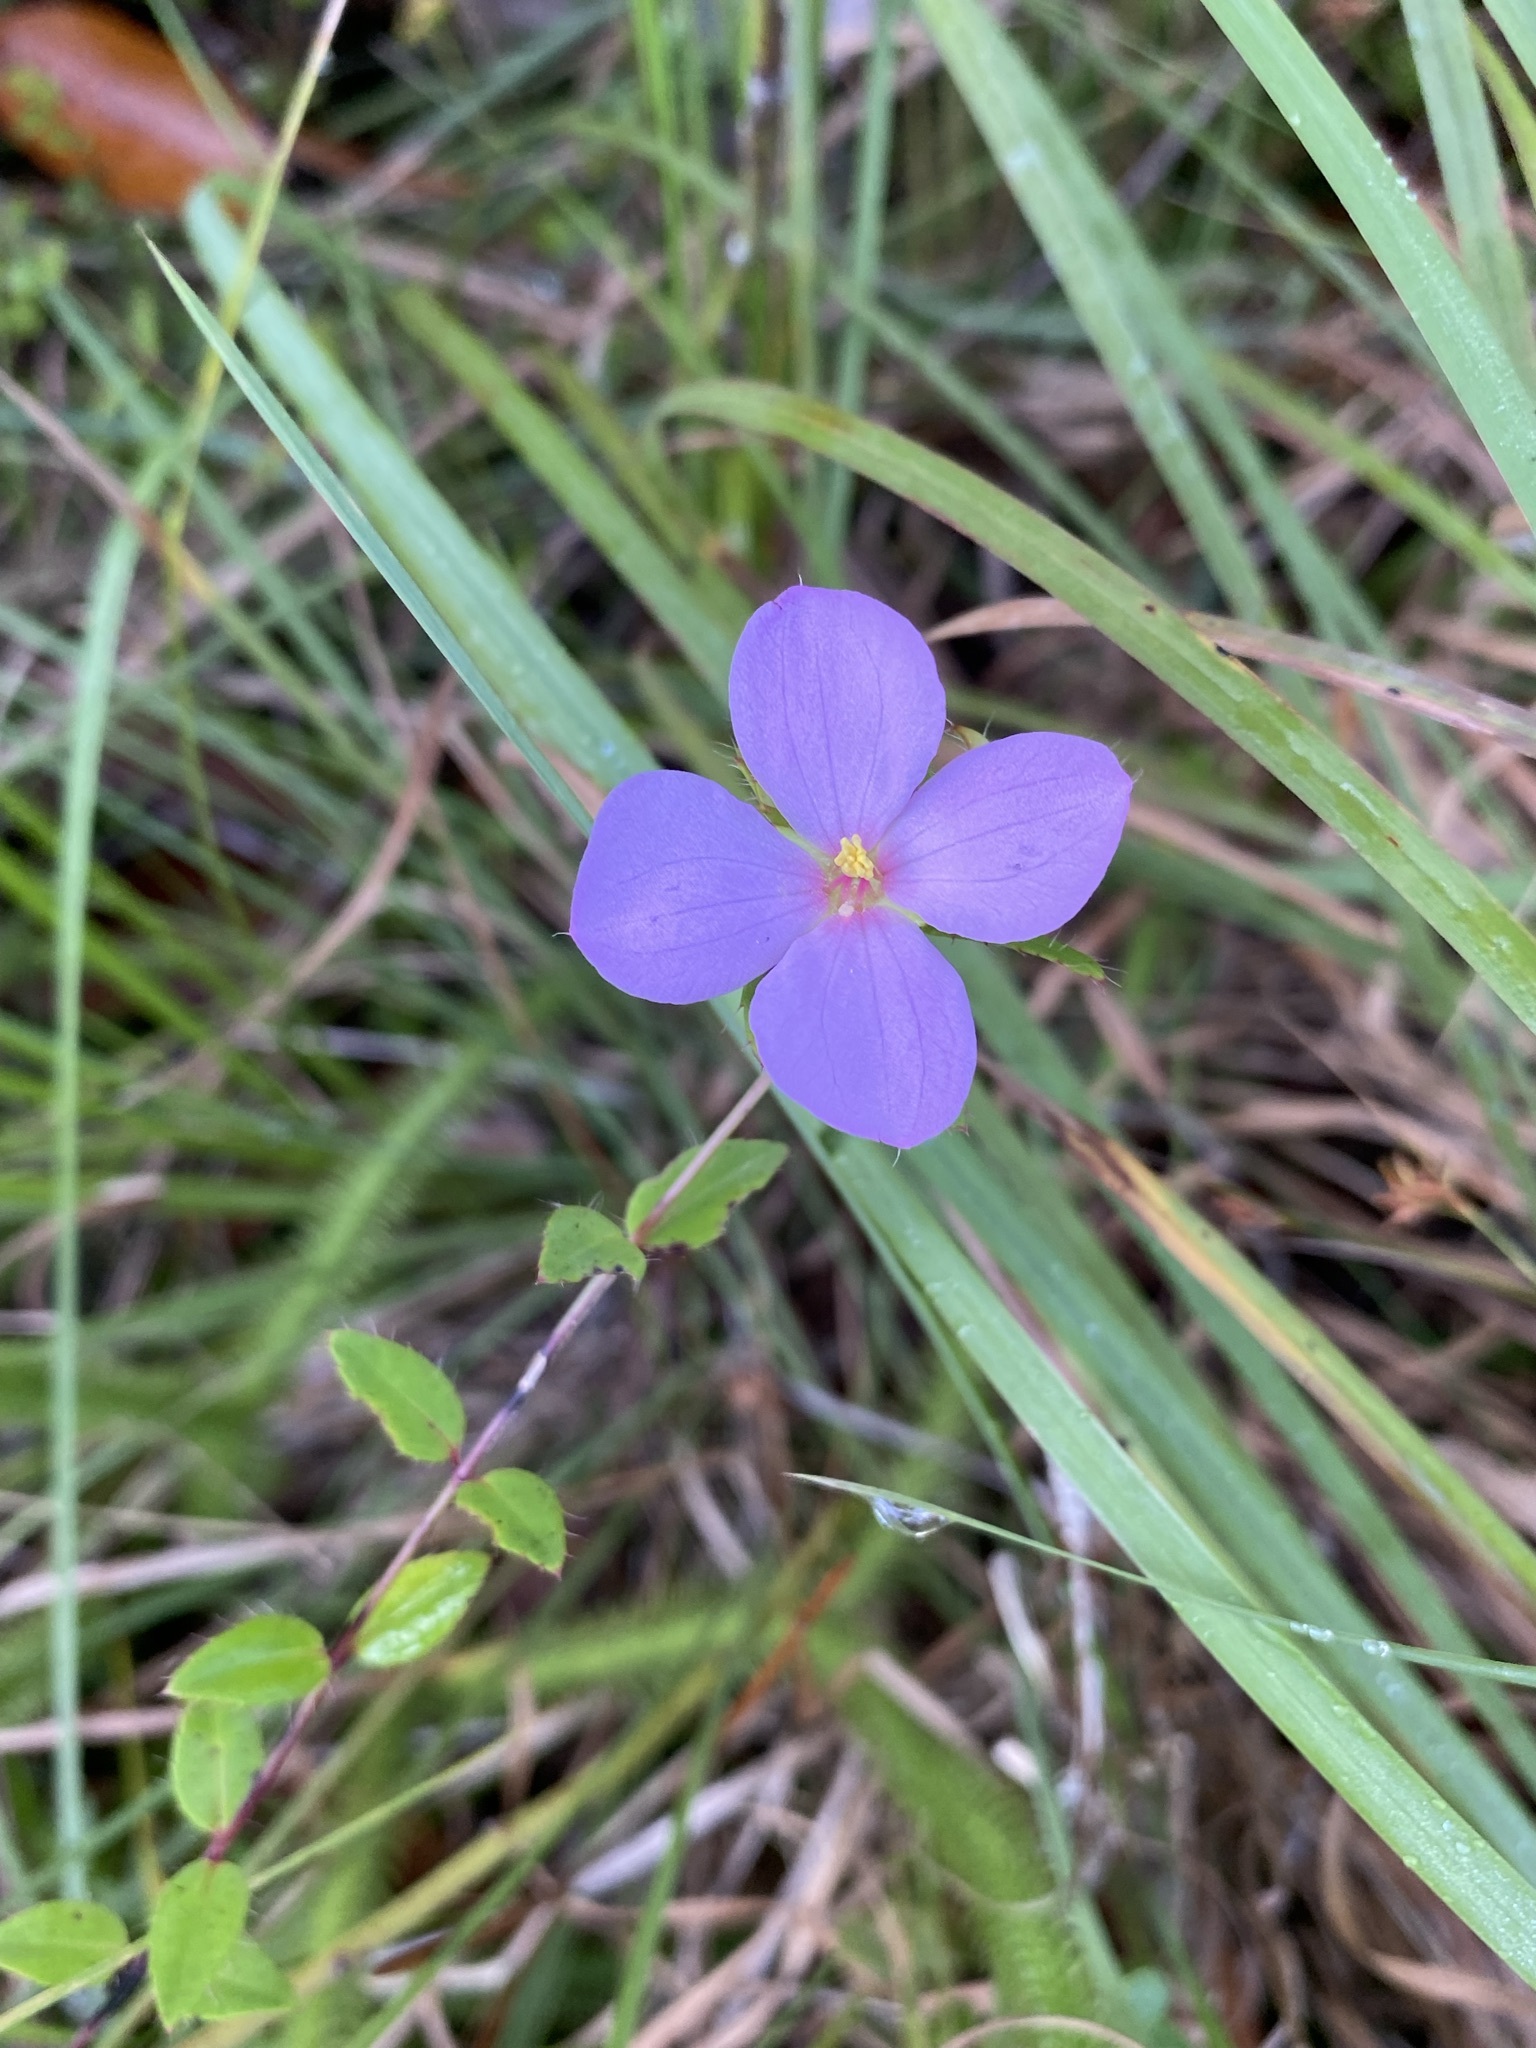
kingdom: Plantae
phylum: Tracheophyta
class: Magnoliopsida
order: Myrtales
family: Melastomataceae
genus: Rhexia
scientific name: Rhexia petiolata
